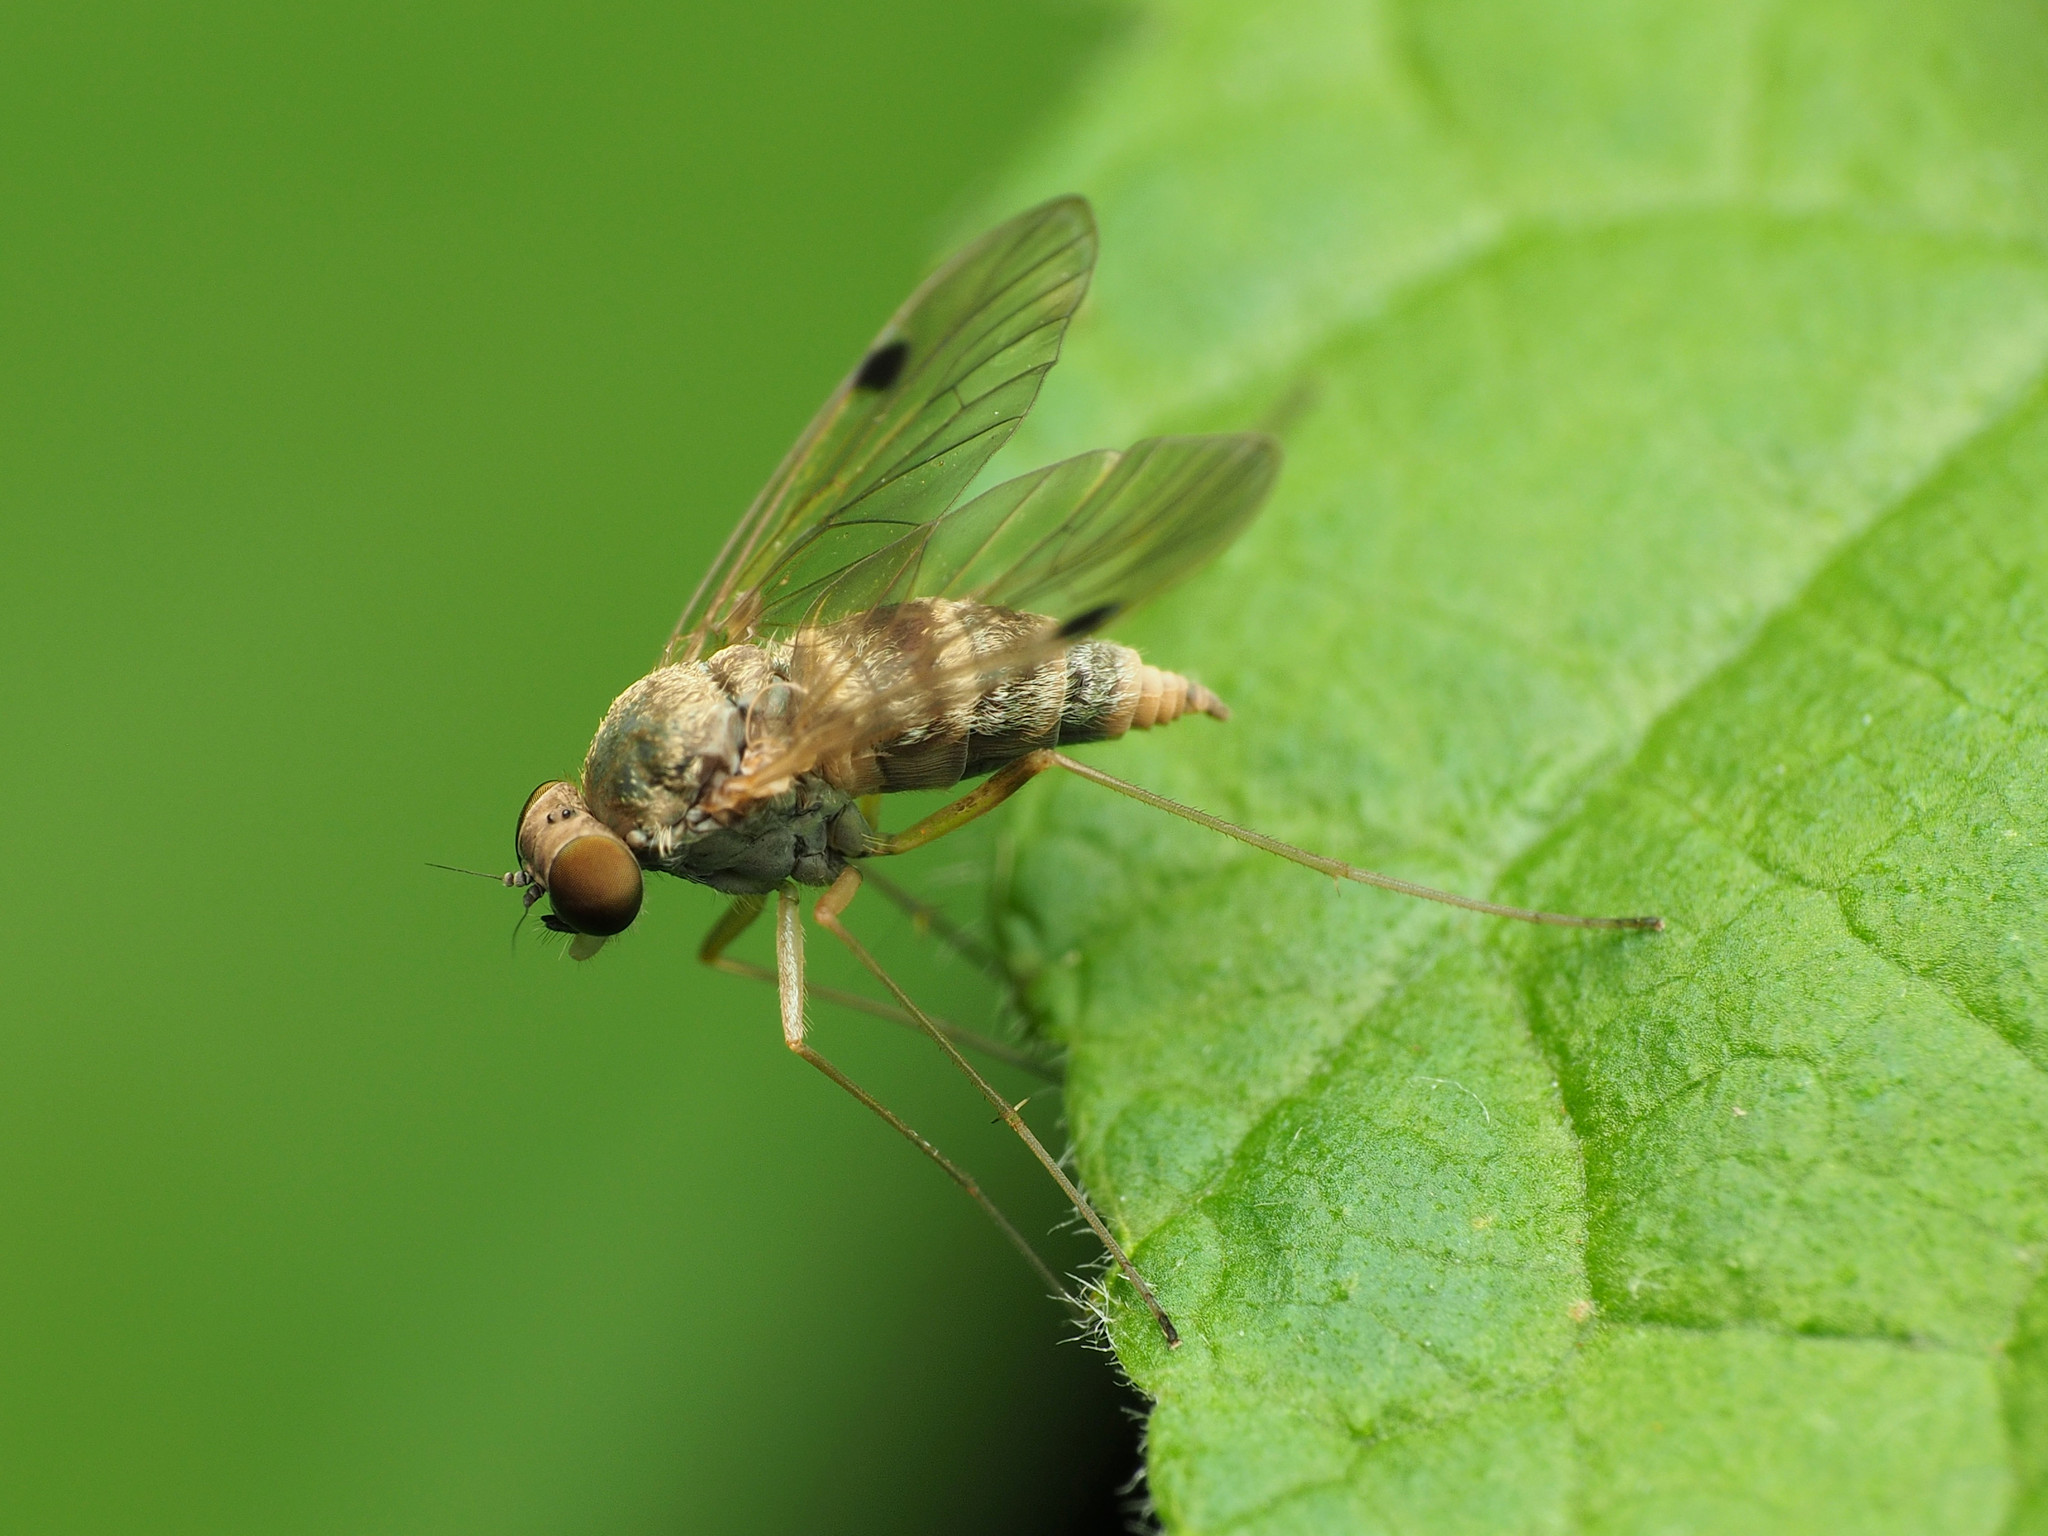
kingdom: Animalia
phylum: Arthropoda
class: Insecta
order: Diptera
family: Rhagionidae
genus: Chrysopilus
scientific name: Chrysopilus modestus
